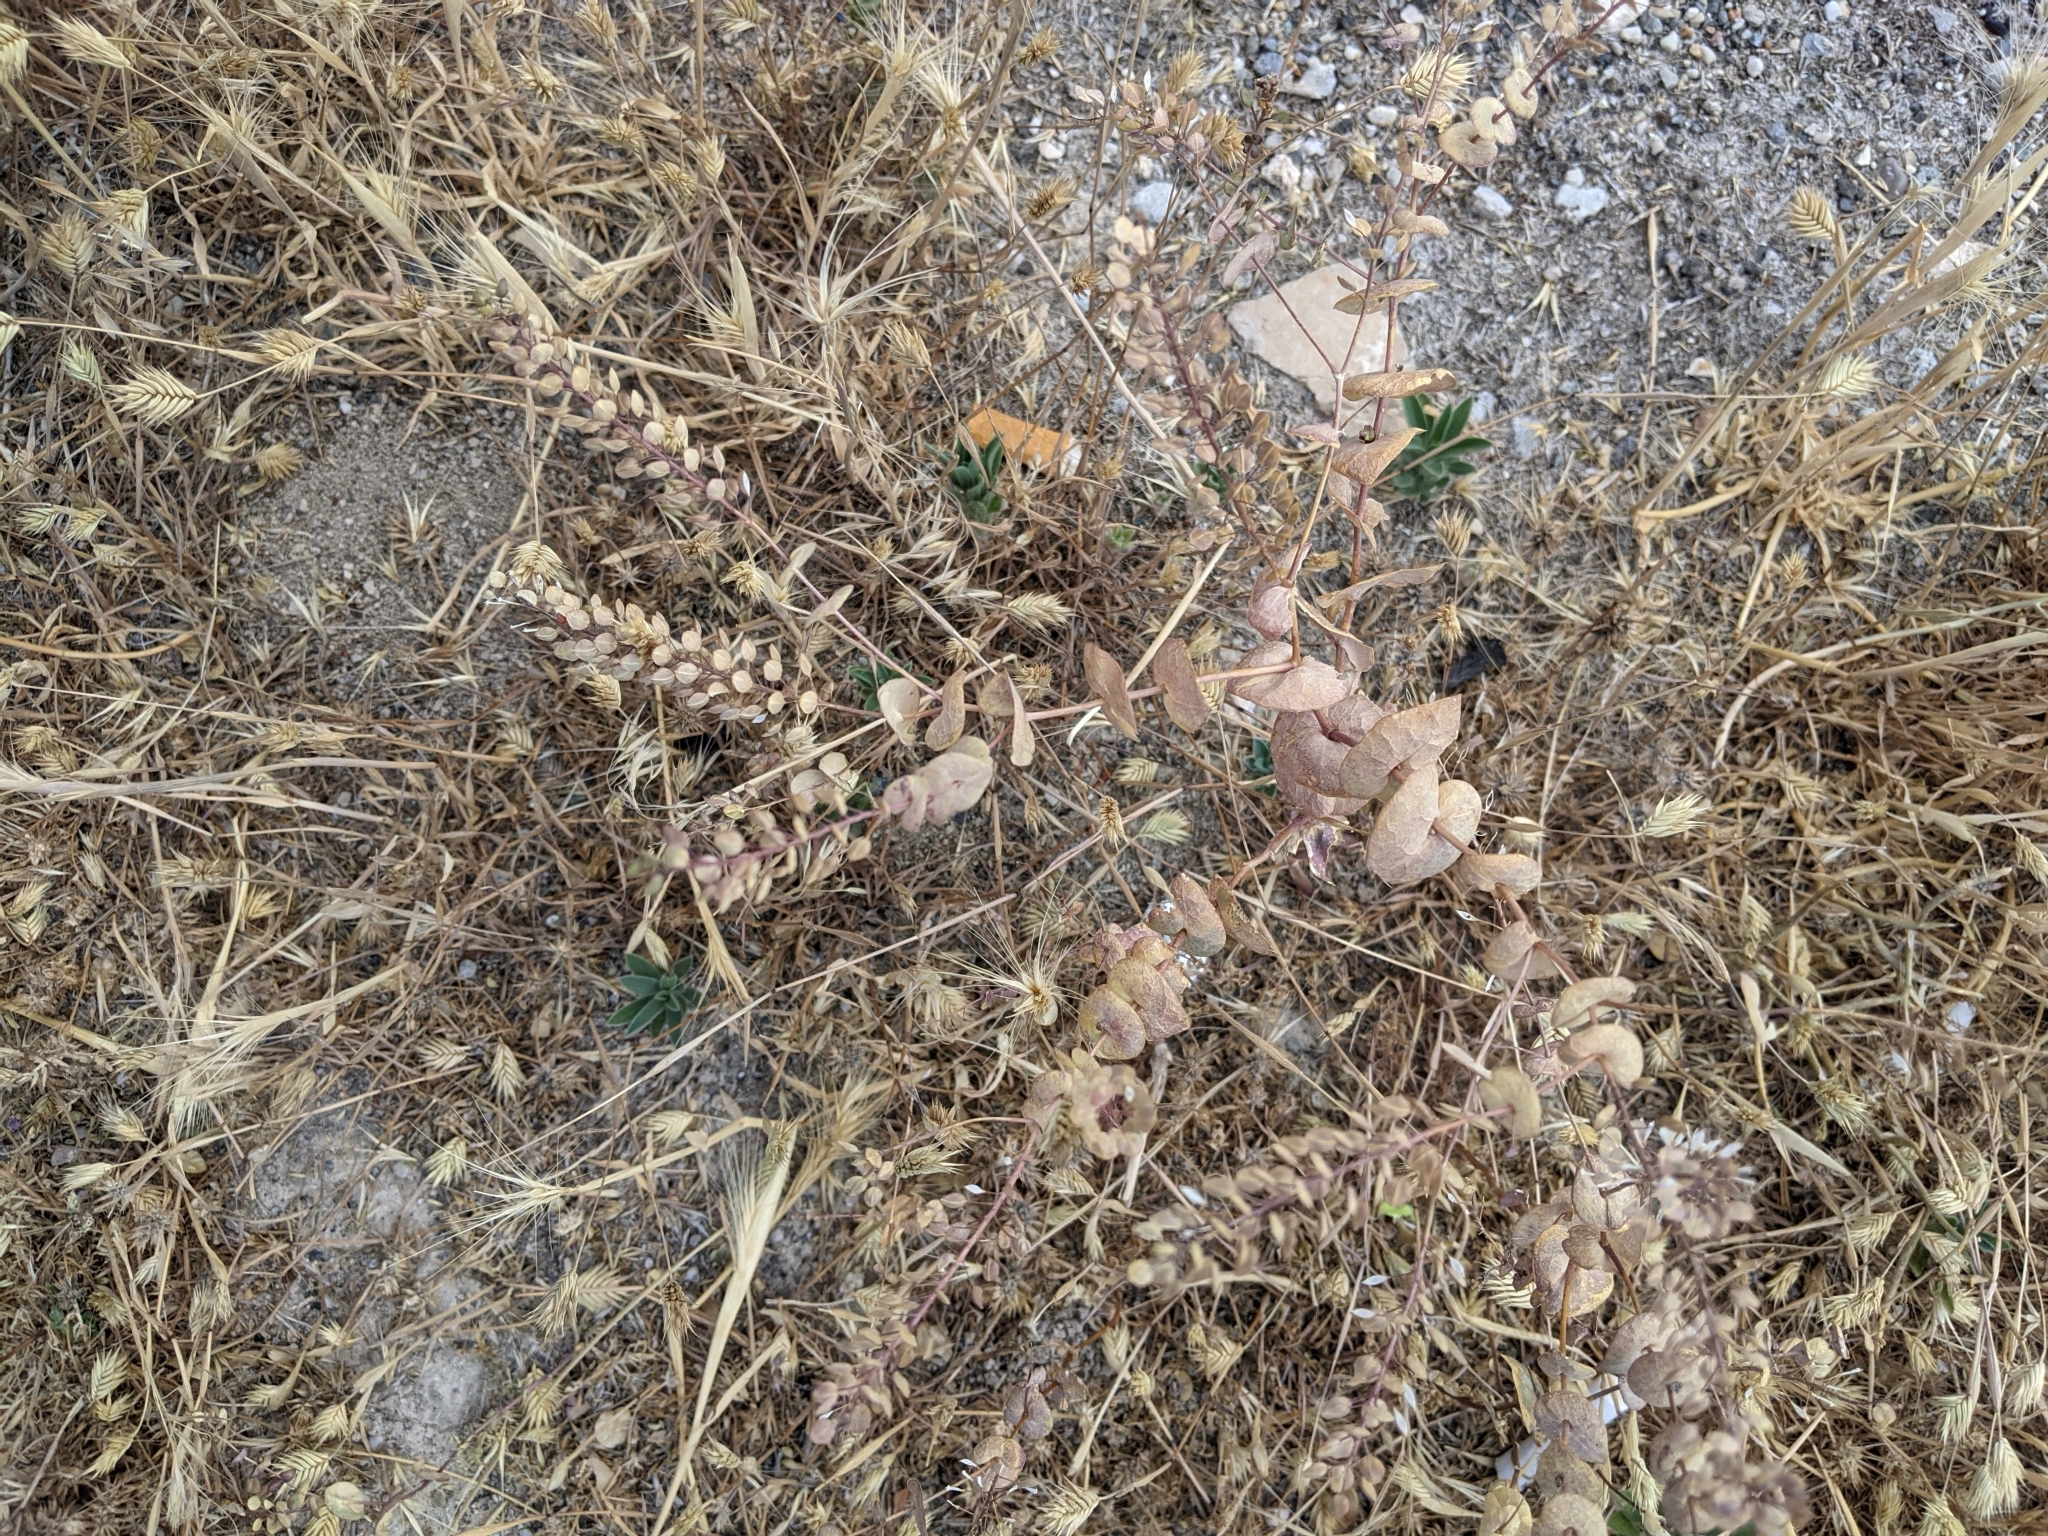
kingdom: Plantae
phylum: Tracheophyta
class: Magnoliopsida
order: Brassicales
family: Brassicaceae
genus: Lepidium
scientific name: Lepidium perfoliatum
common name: Perfoliate pepperwort
